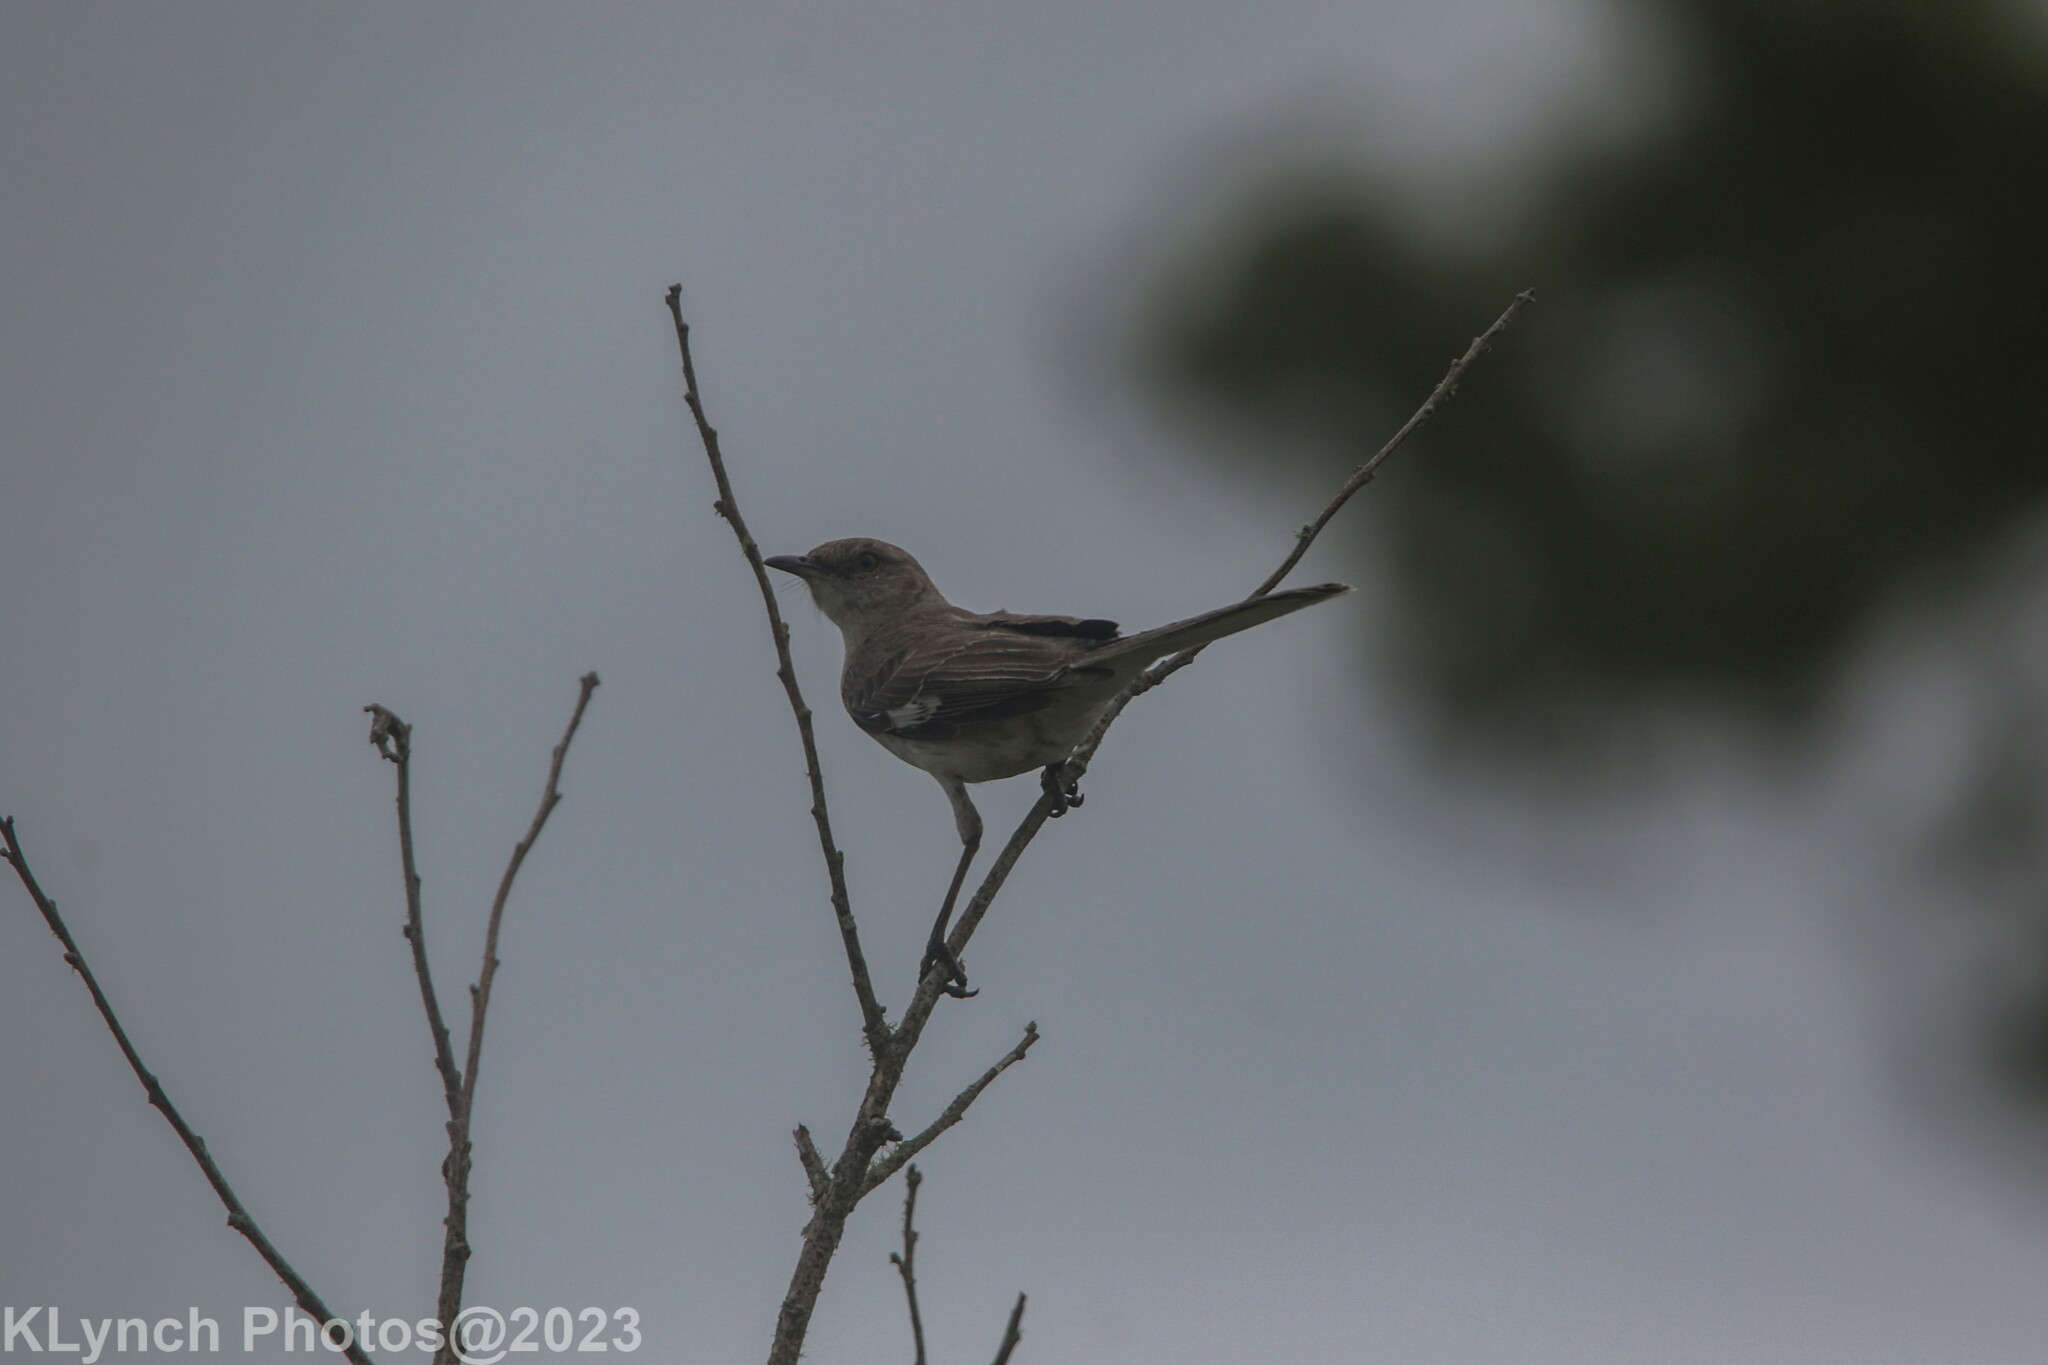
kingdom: Animalia
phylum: Chordata
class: Aves
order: Passeriformes
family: Mimidae
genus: Mimus
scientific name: Mimus polyglottos
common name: Northern mockingbird
